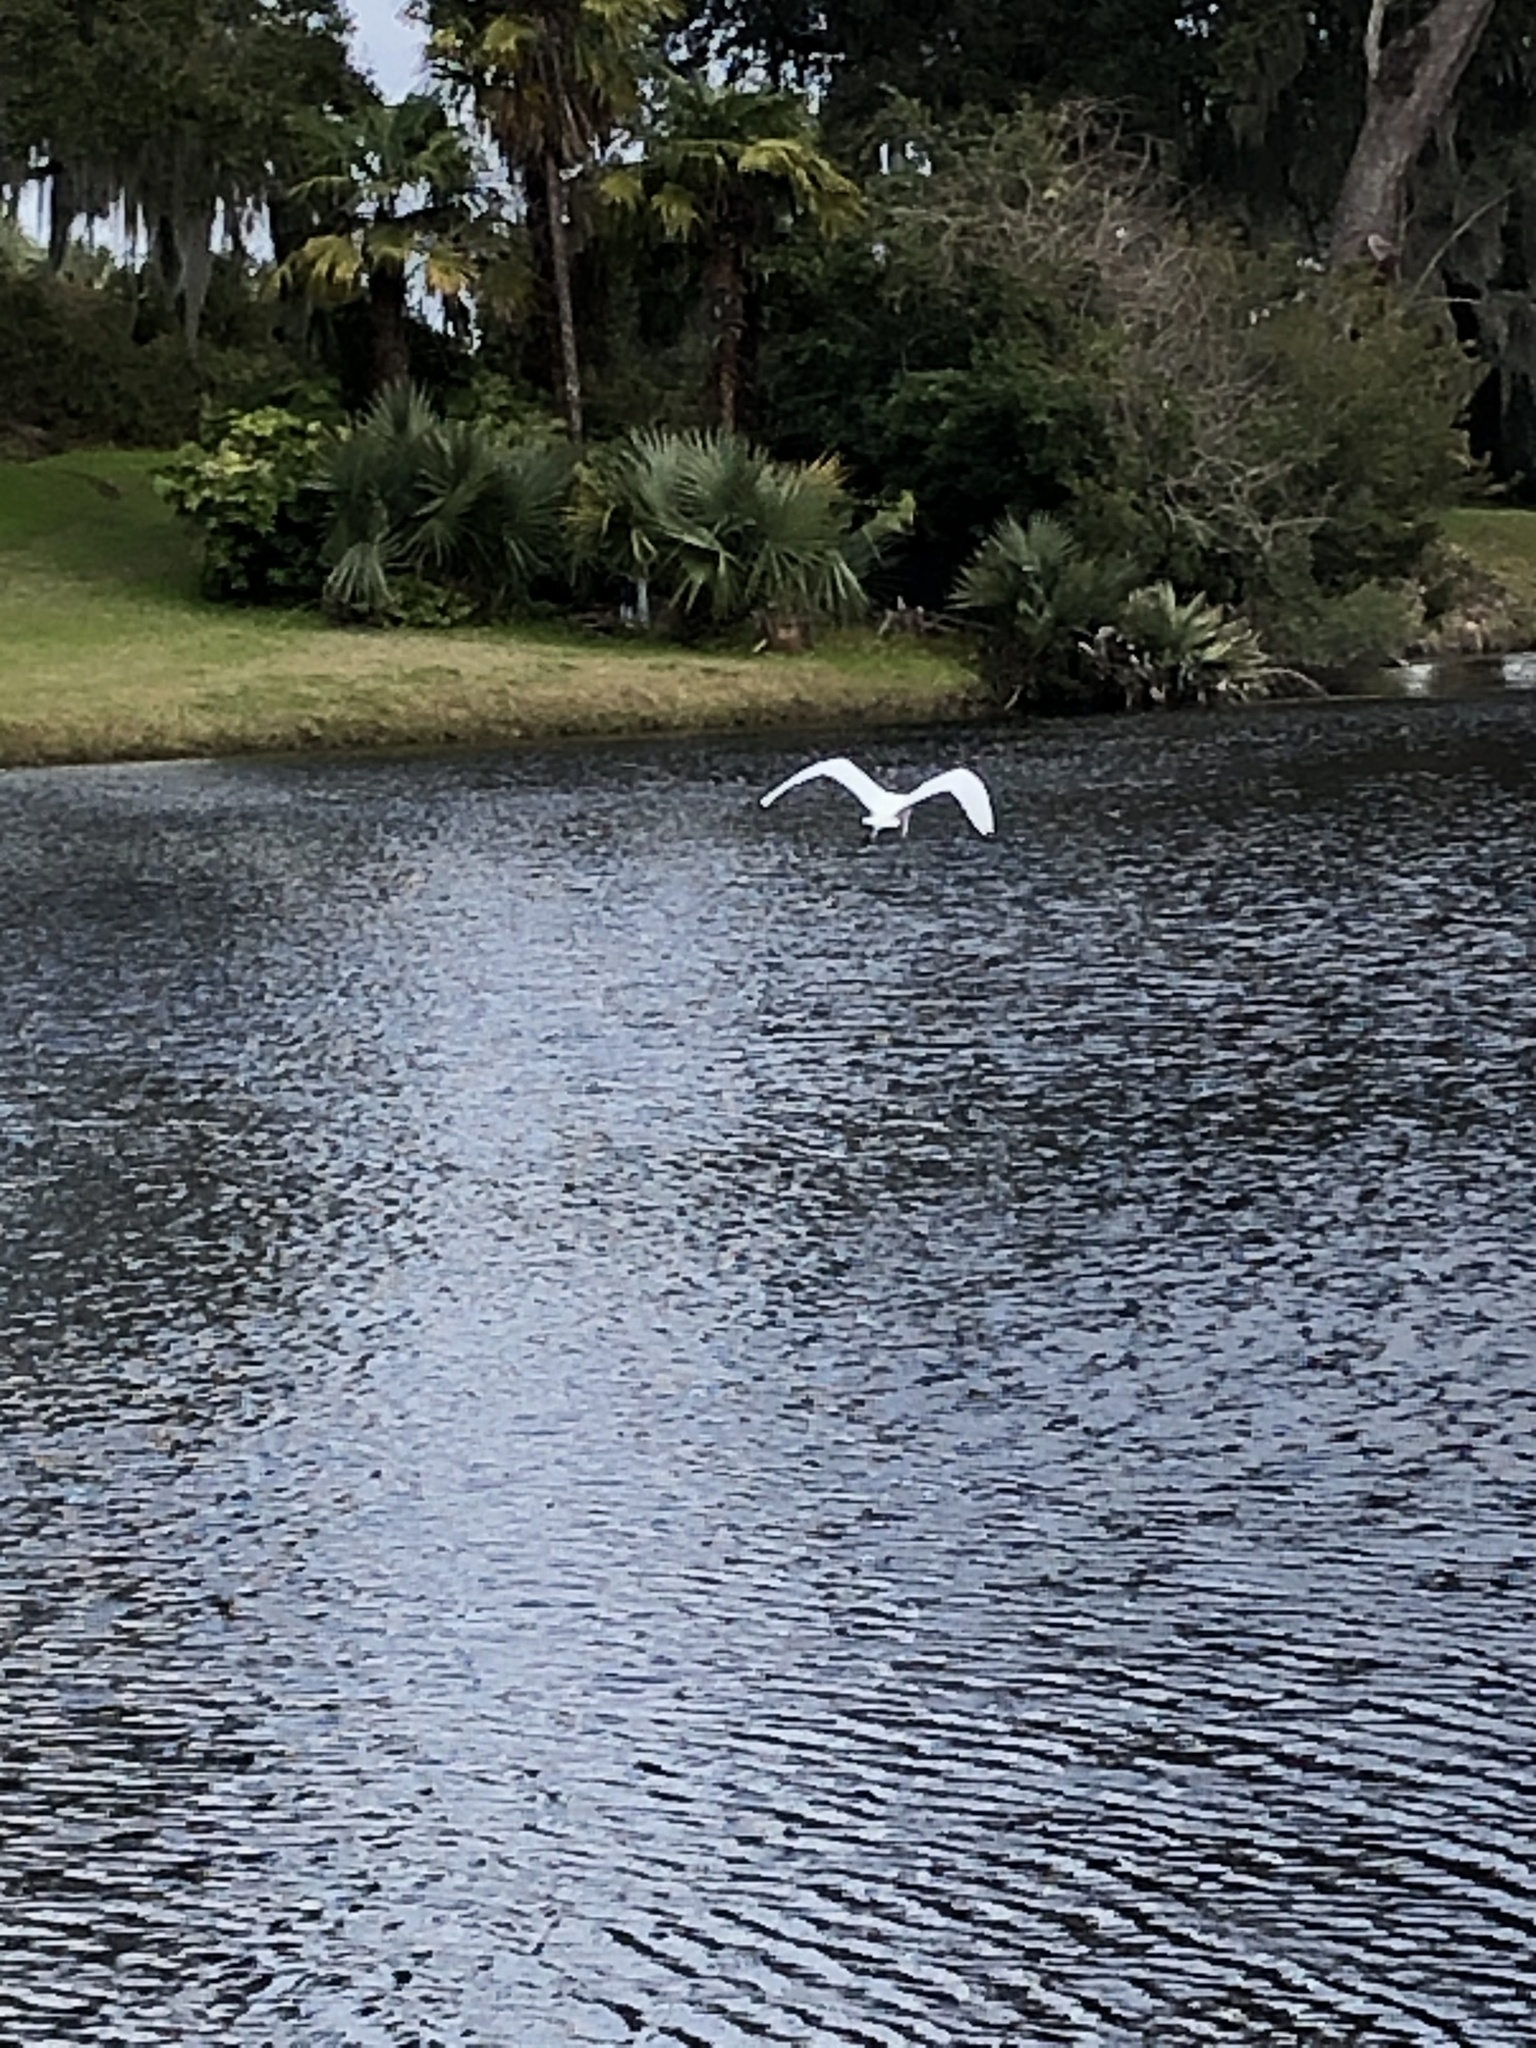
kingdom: Animalia
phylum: Chordata
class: Aves
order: Pelecaniformes
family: Ardeidae
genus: Ardea
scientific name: Ardea alba
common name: Great egret
